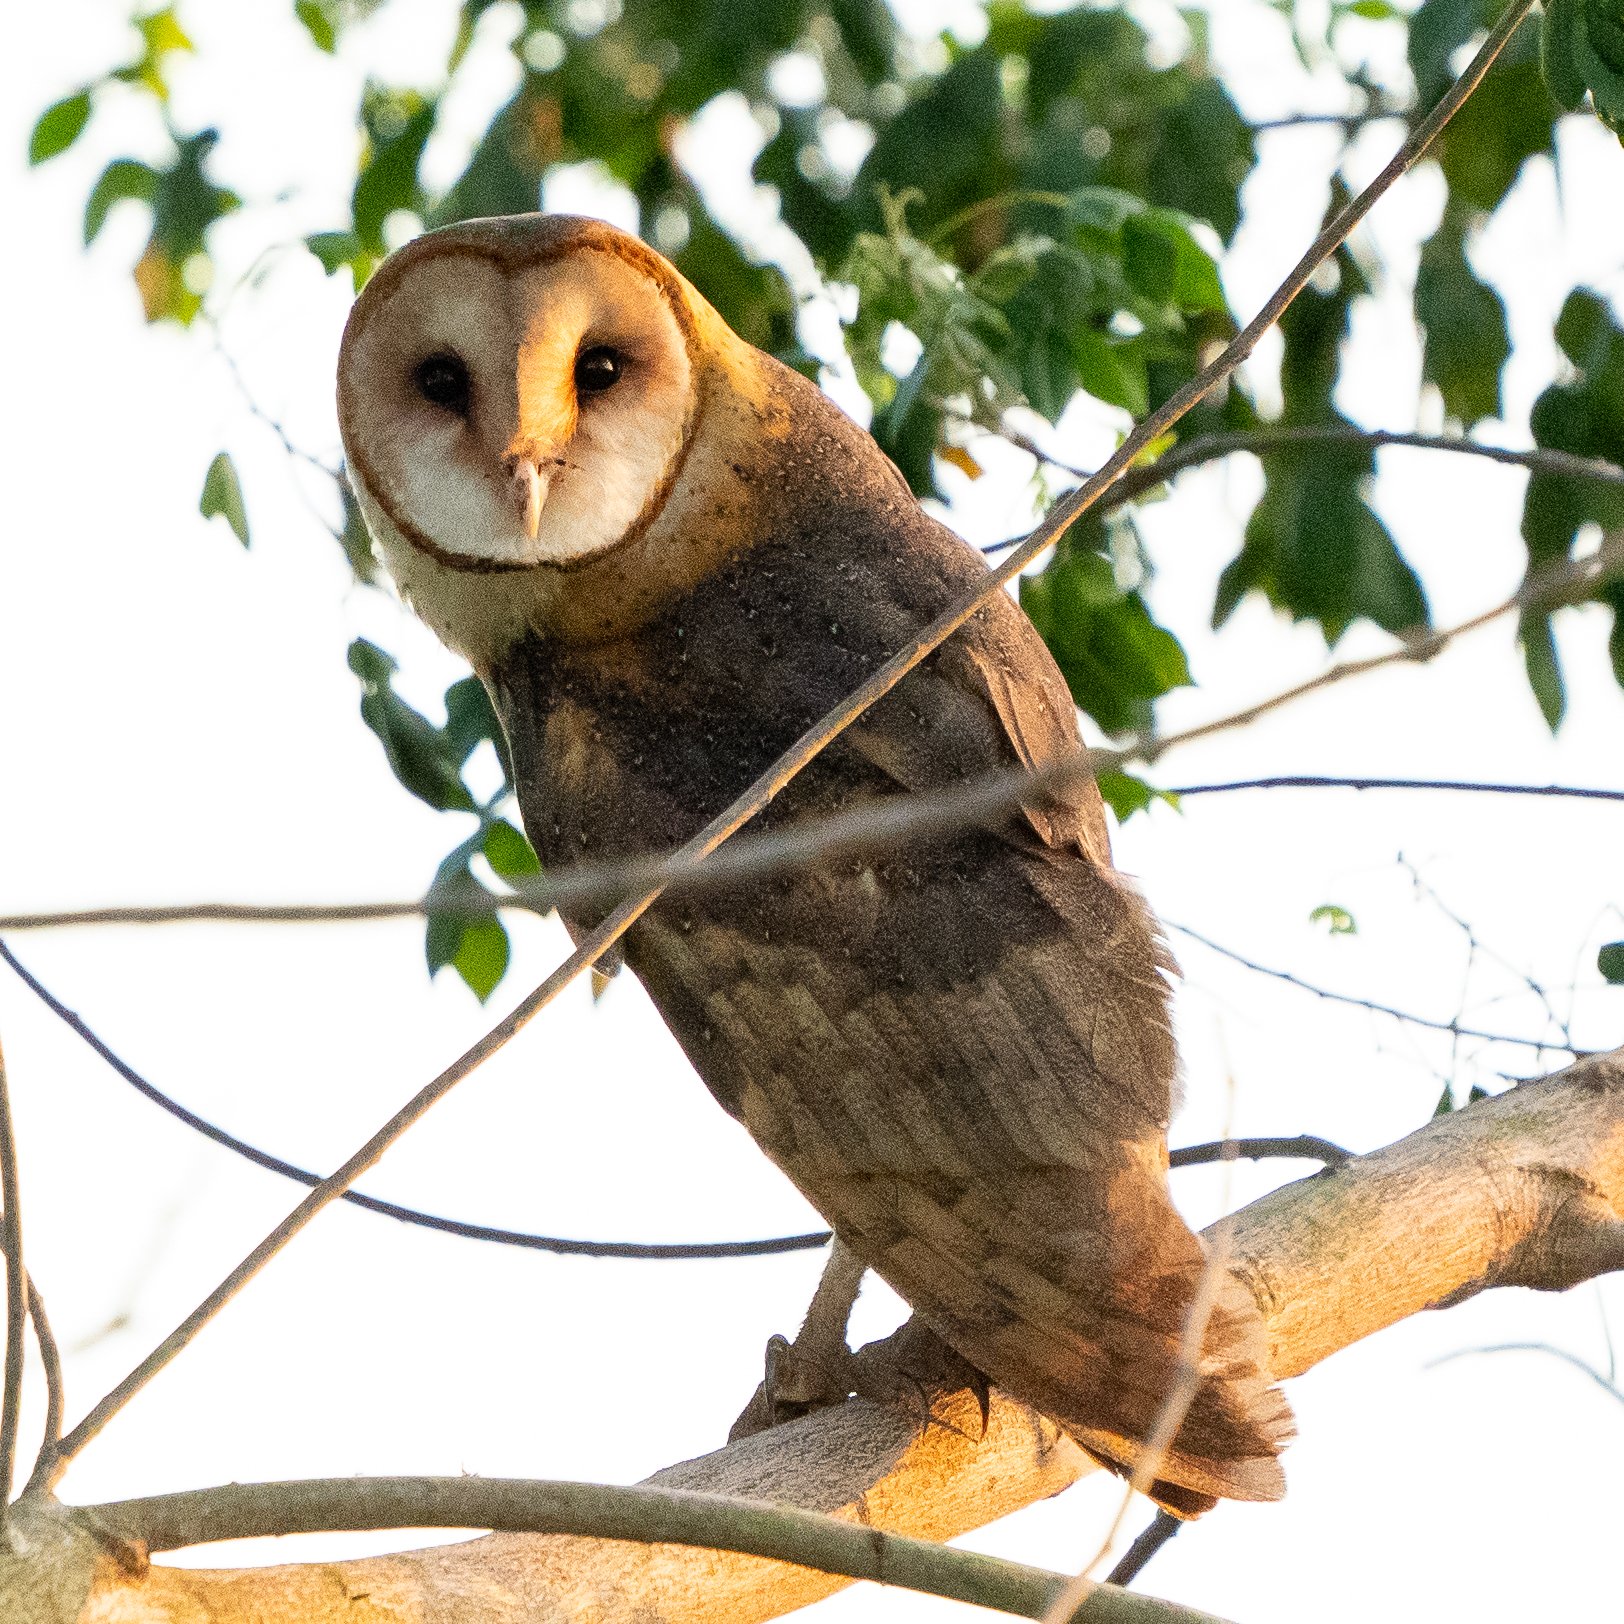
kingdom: Animalia
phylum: Chordata
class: Aves
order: Strigiformes
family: Tytonidae
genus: Tyto
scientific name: Tyto alba
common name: Barn owl
